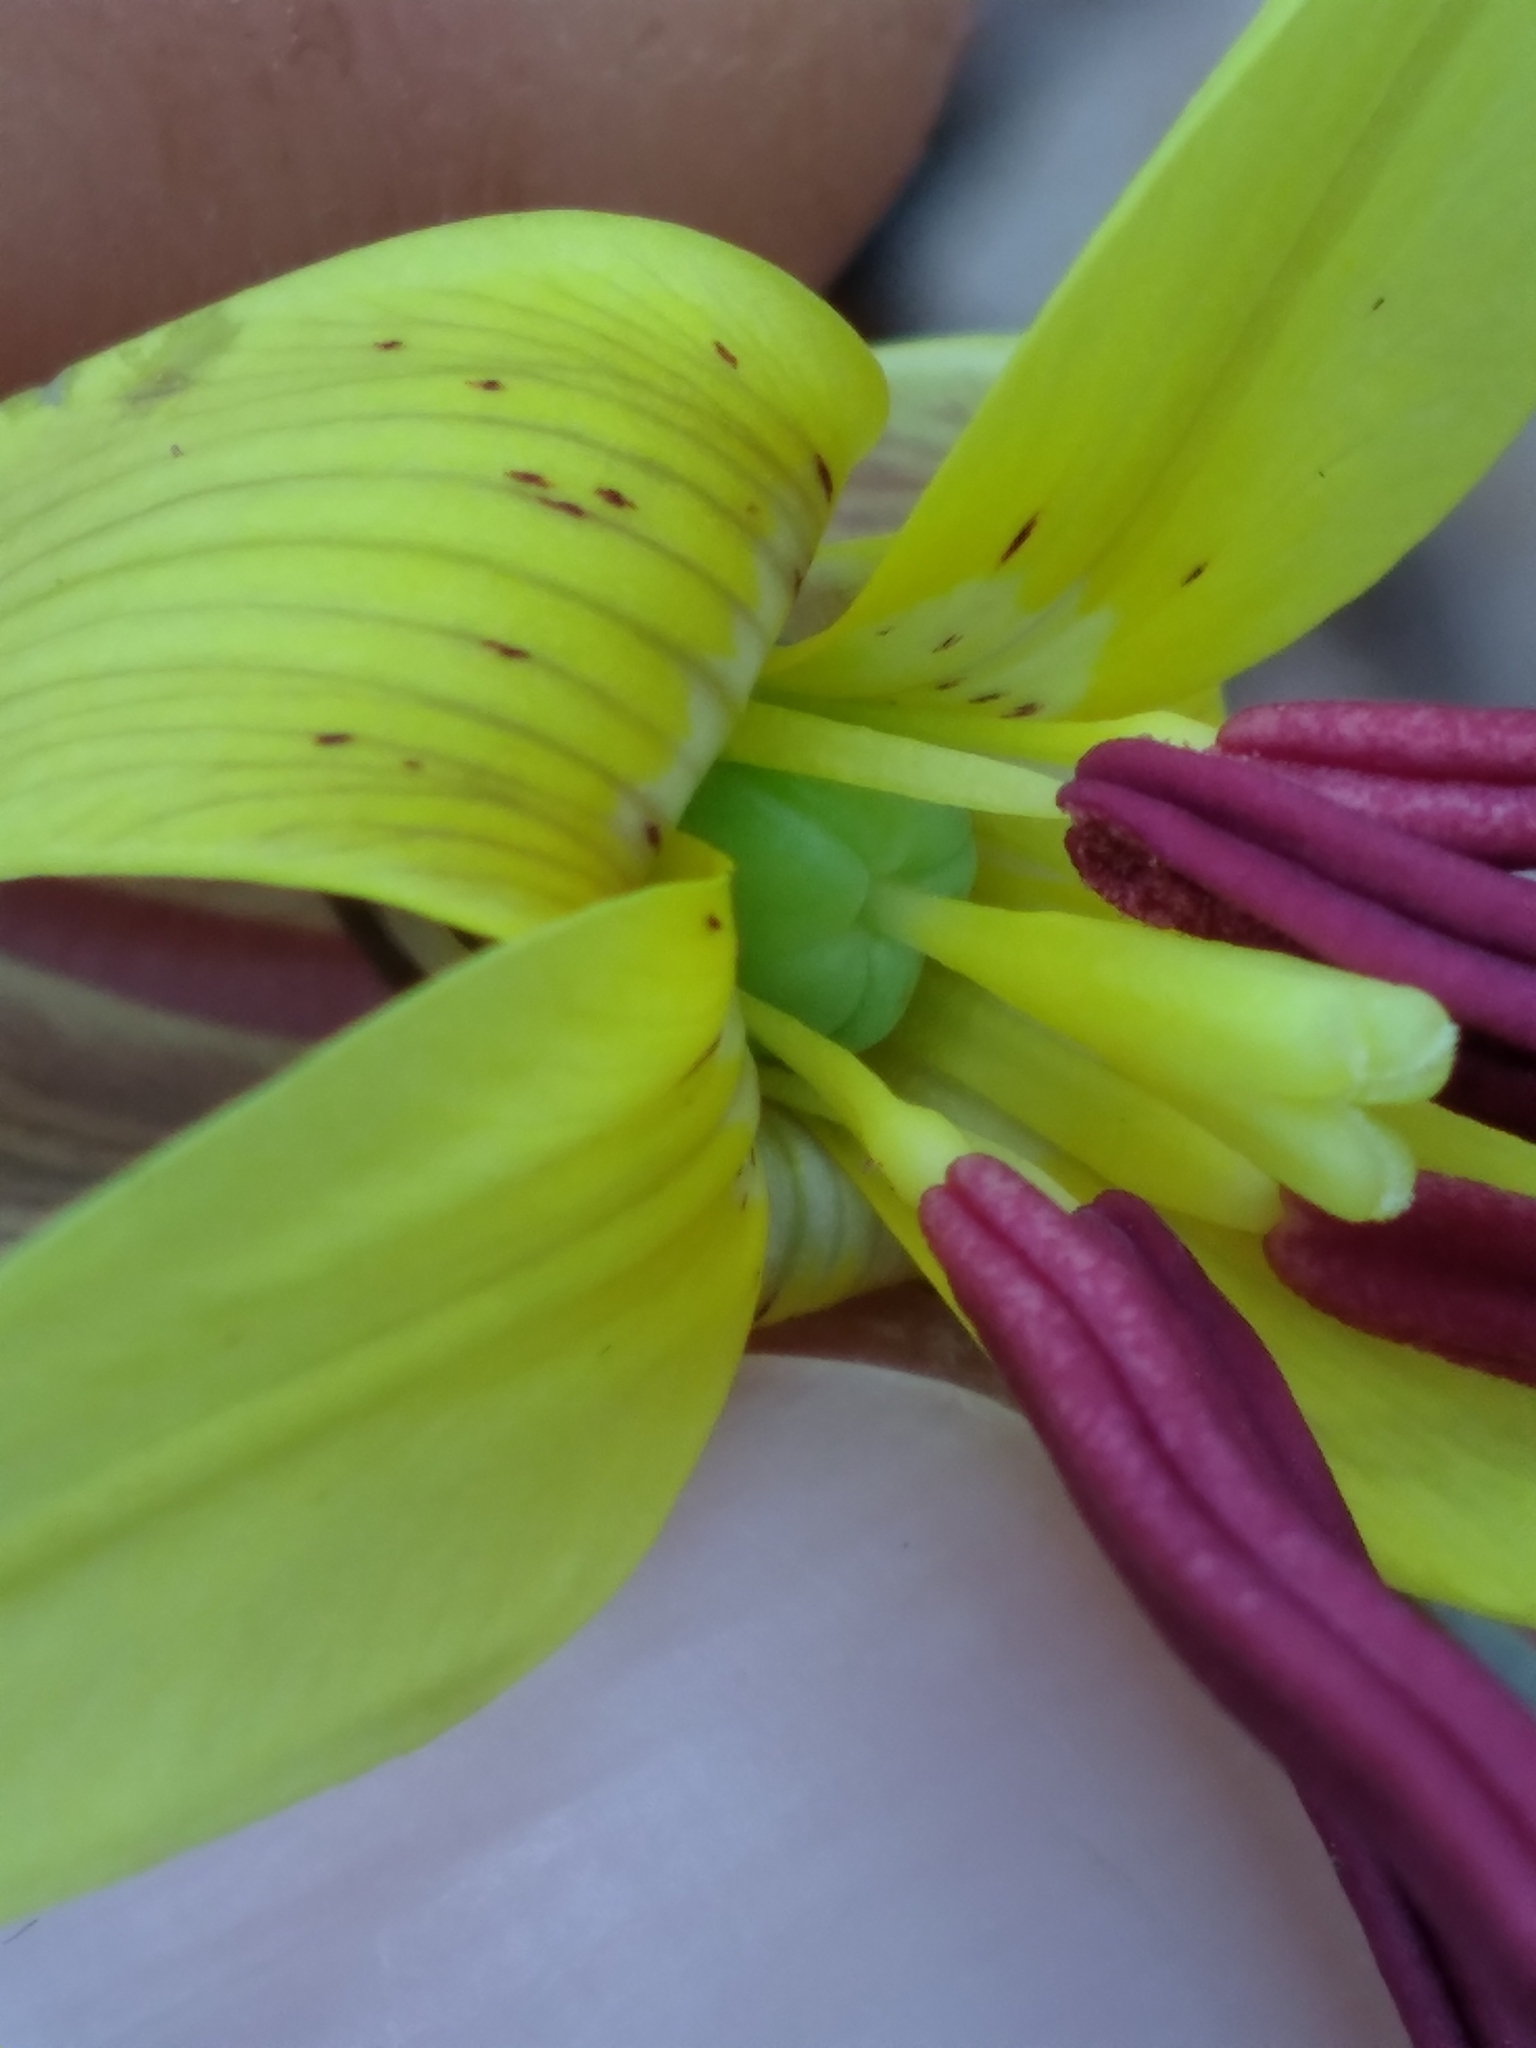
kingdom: Plantae
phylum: Tracheophyta
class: Liliopsida
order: Liliales
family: Liliaceae
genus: Erythronium
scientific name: Erythronium umbilicatum
